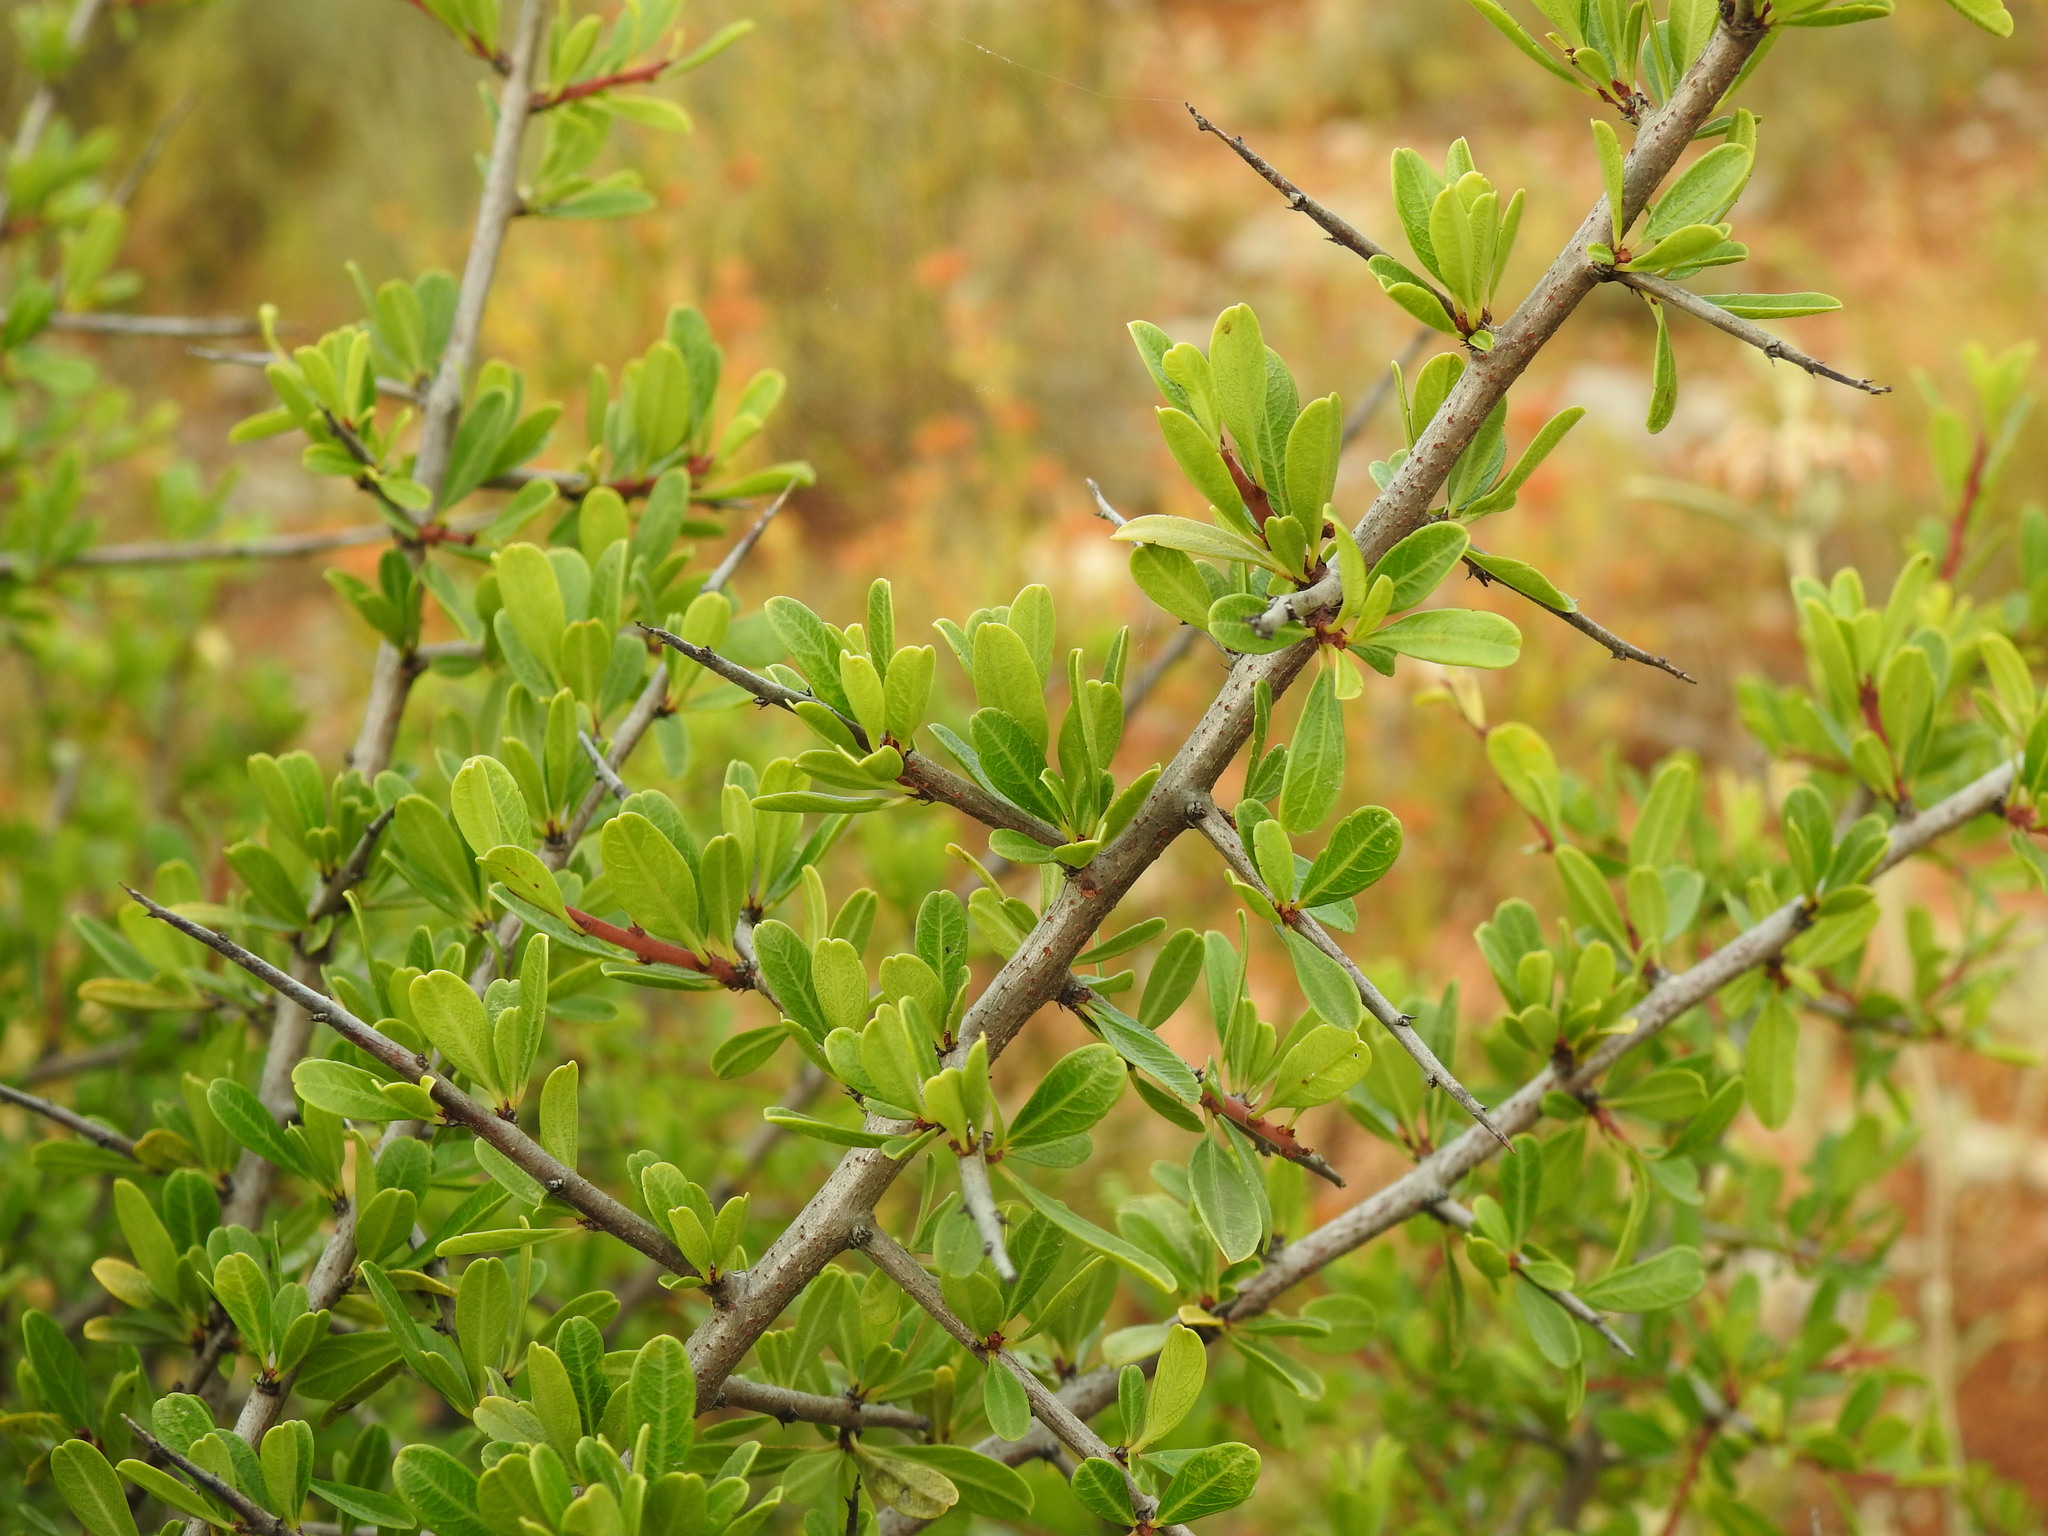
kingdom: Plantae
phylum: Tracheophyta
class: Magnoliopsida
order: Rosales
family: Rhamnaceae
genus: Rhamnus
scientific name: Rhamnus oleoides
